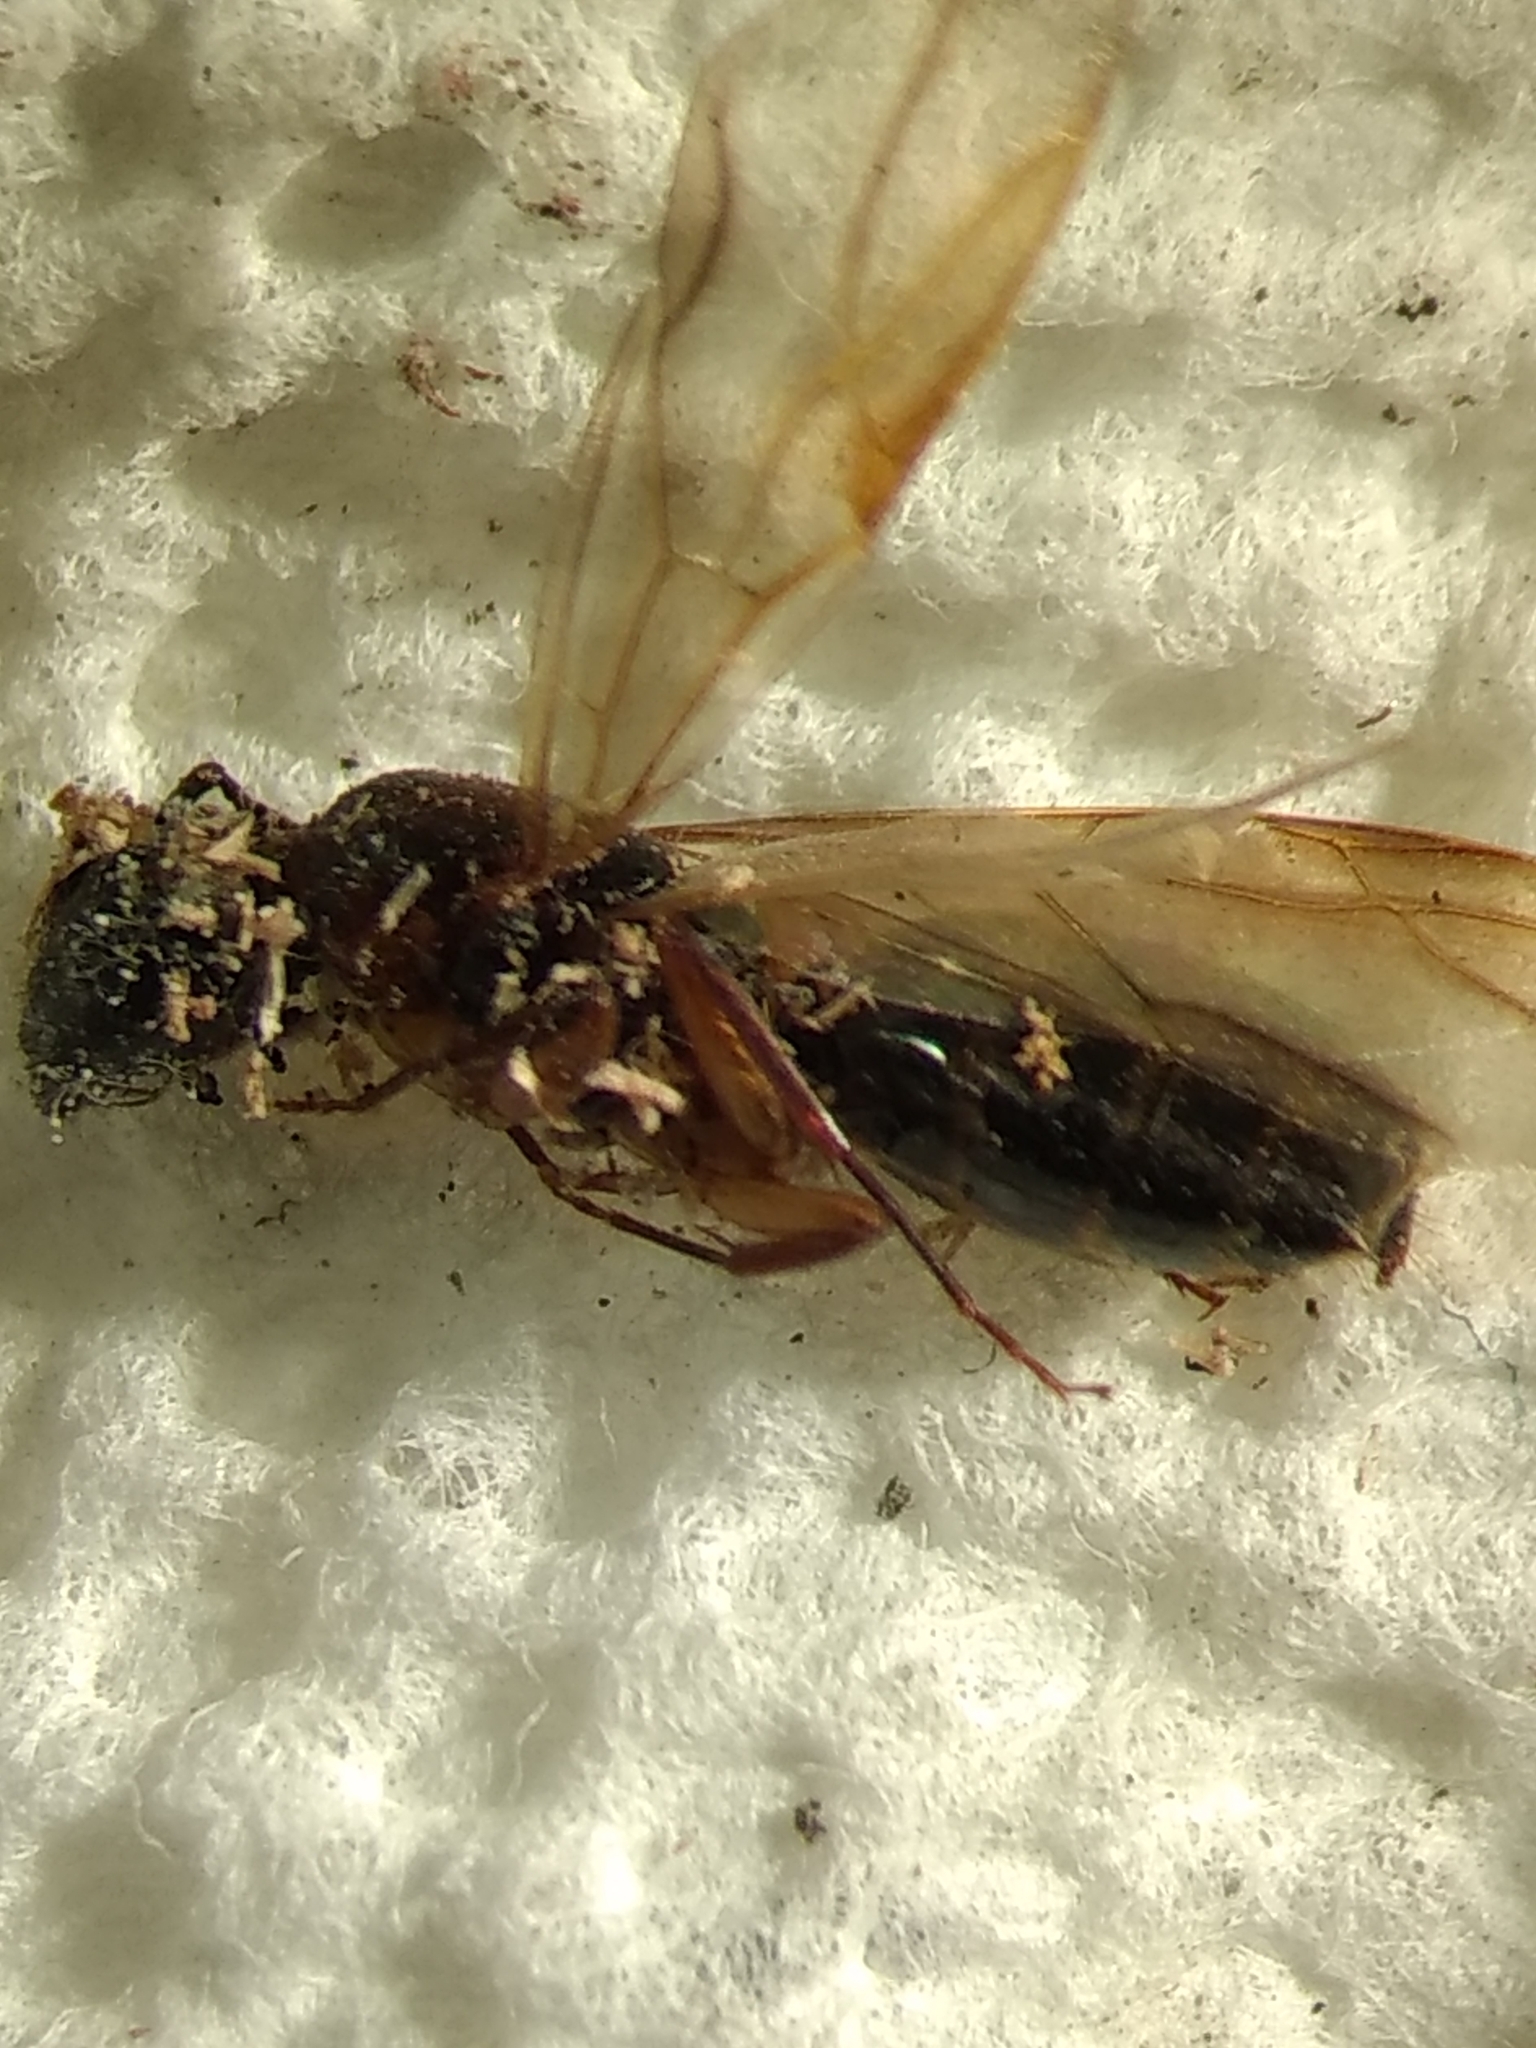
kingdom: Animalia
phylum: Arthropoda
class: Insecta
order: Hymenoptera
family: Formicidae
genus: Camponotus
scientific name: Camponotus clarithorax
